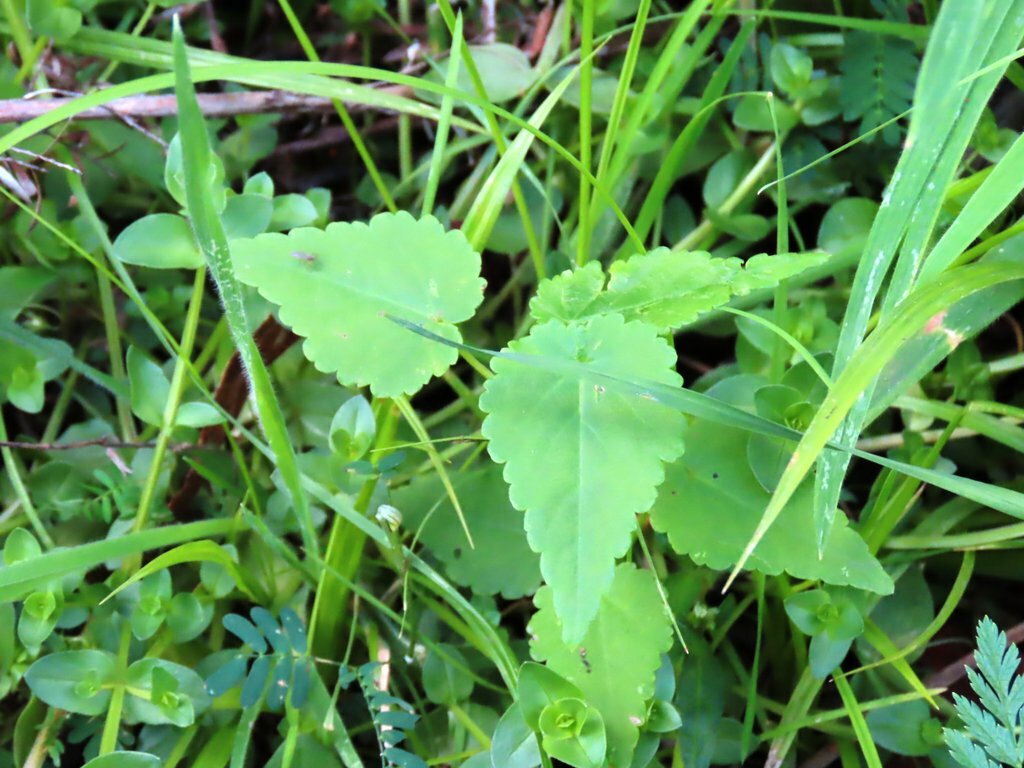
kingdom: Plantae
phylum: Tracheophyta
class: Magnoliopsida
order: Malvales
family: Malvaceae
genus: Gynatrix
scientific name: Gynatrix pulchella
